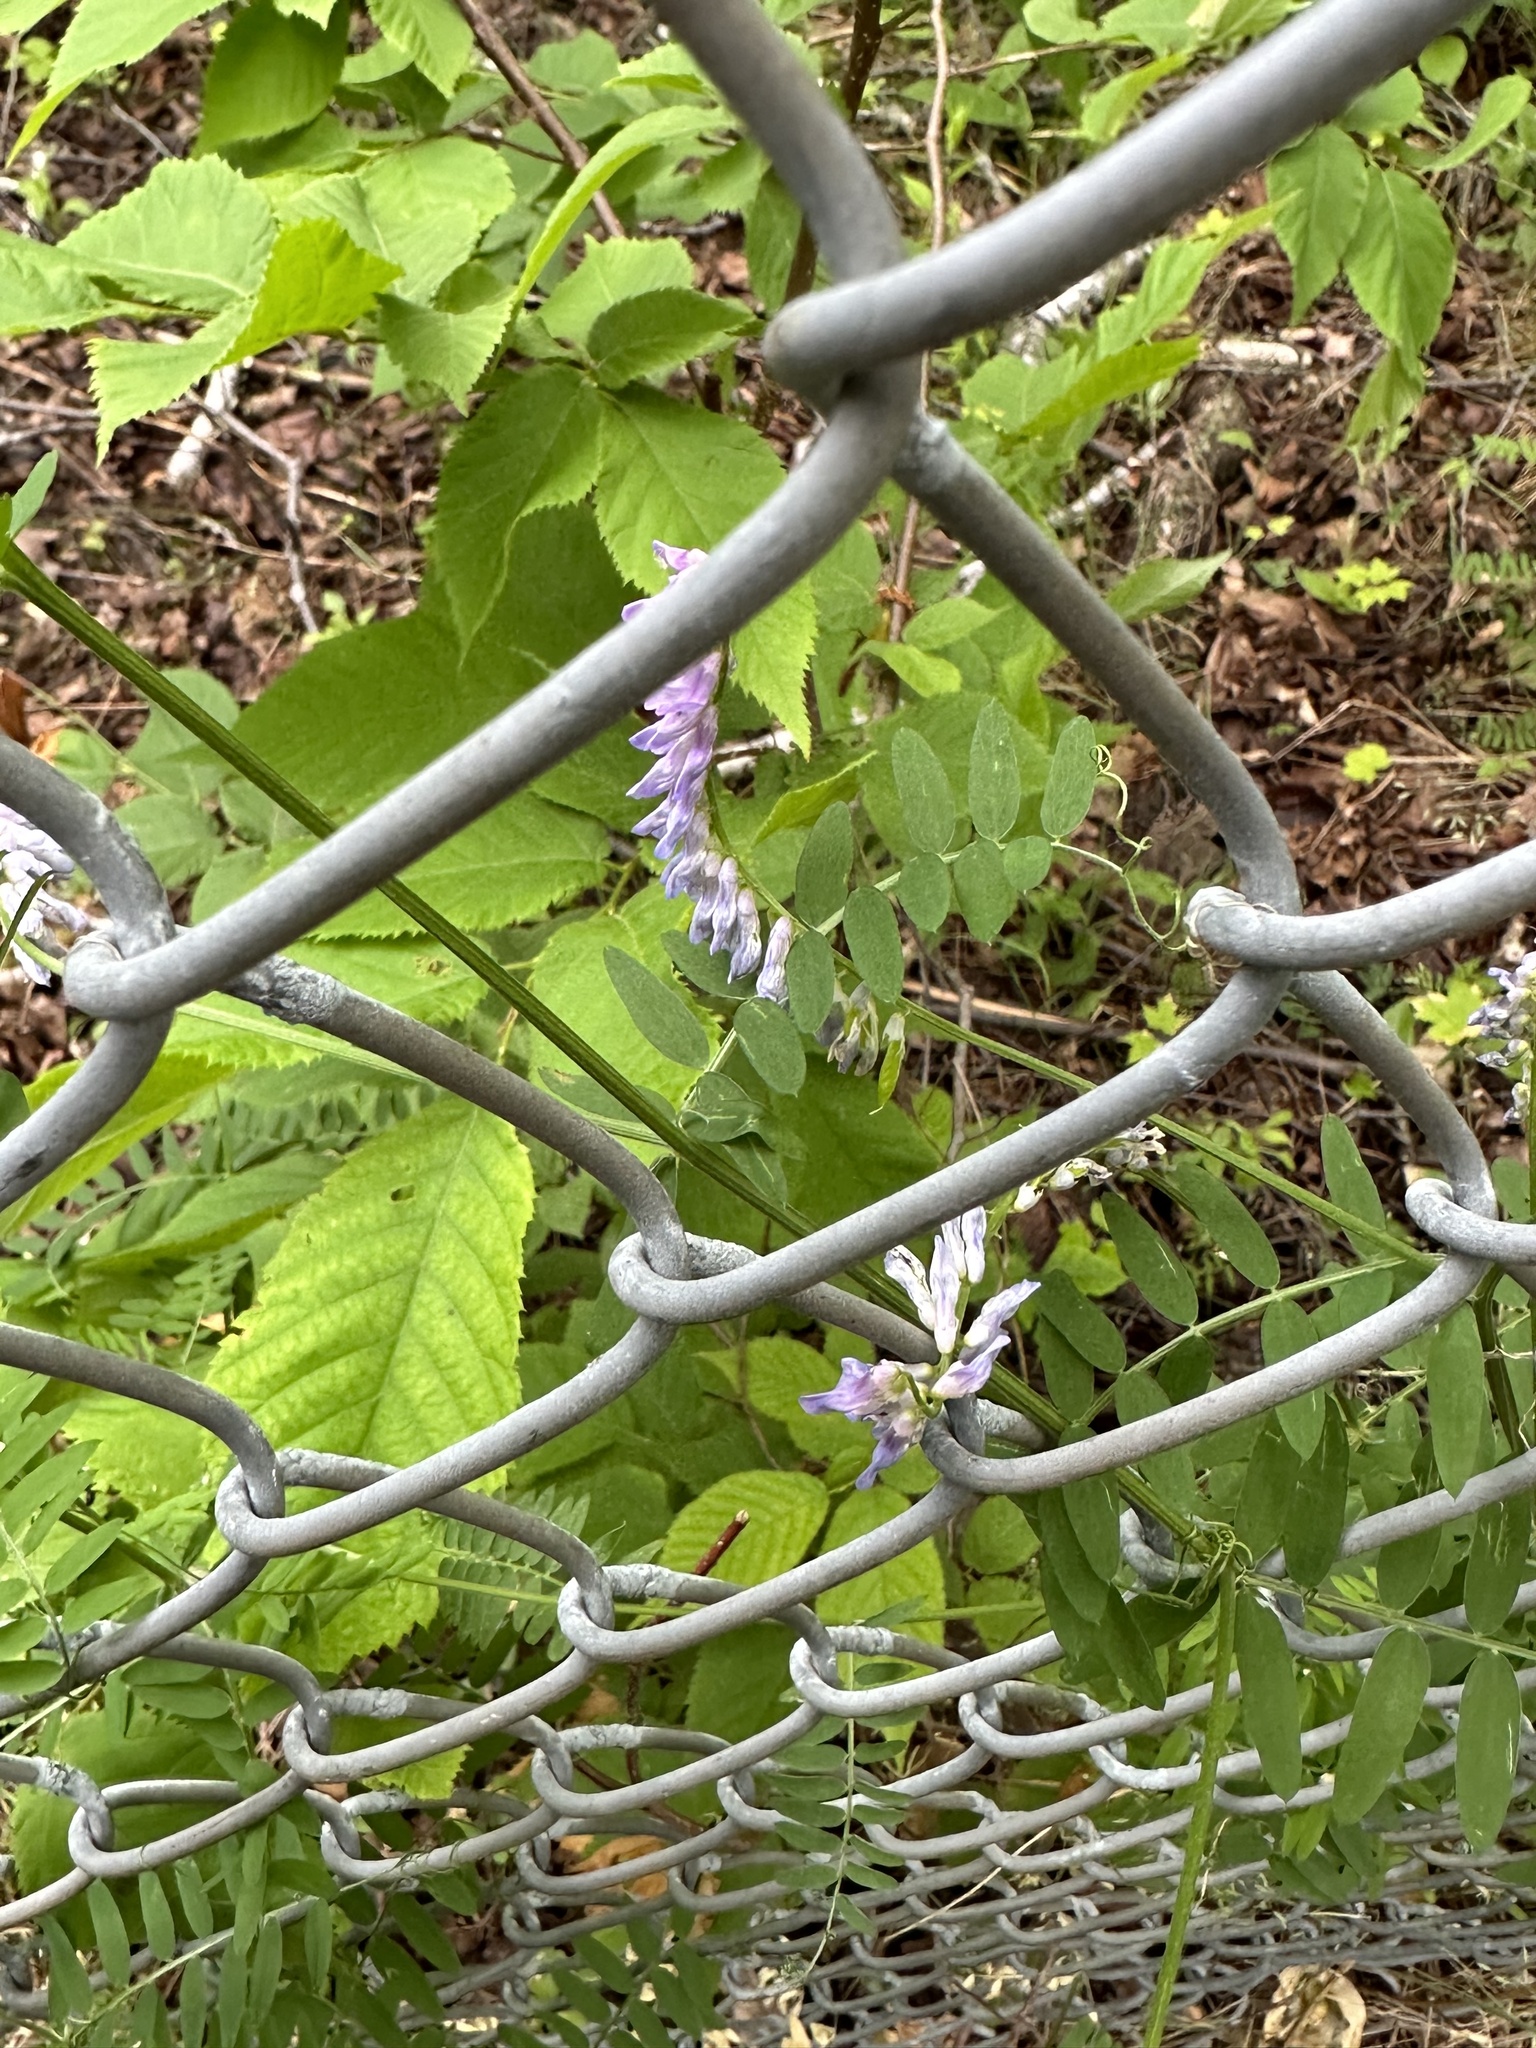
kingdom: Plantae
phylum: Tracheophyta
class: Magnoliopsida
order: Fabales
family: Fabaceae
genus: Vicia
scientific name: Vicia cracca
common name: Bird vetch
